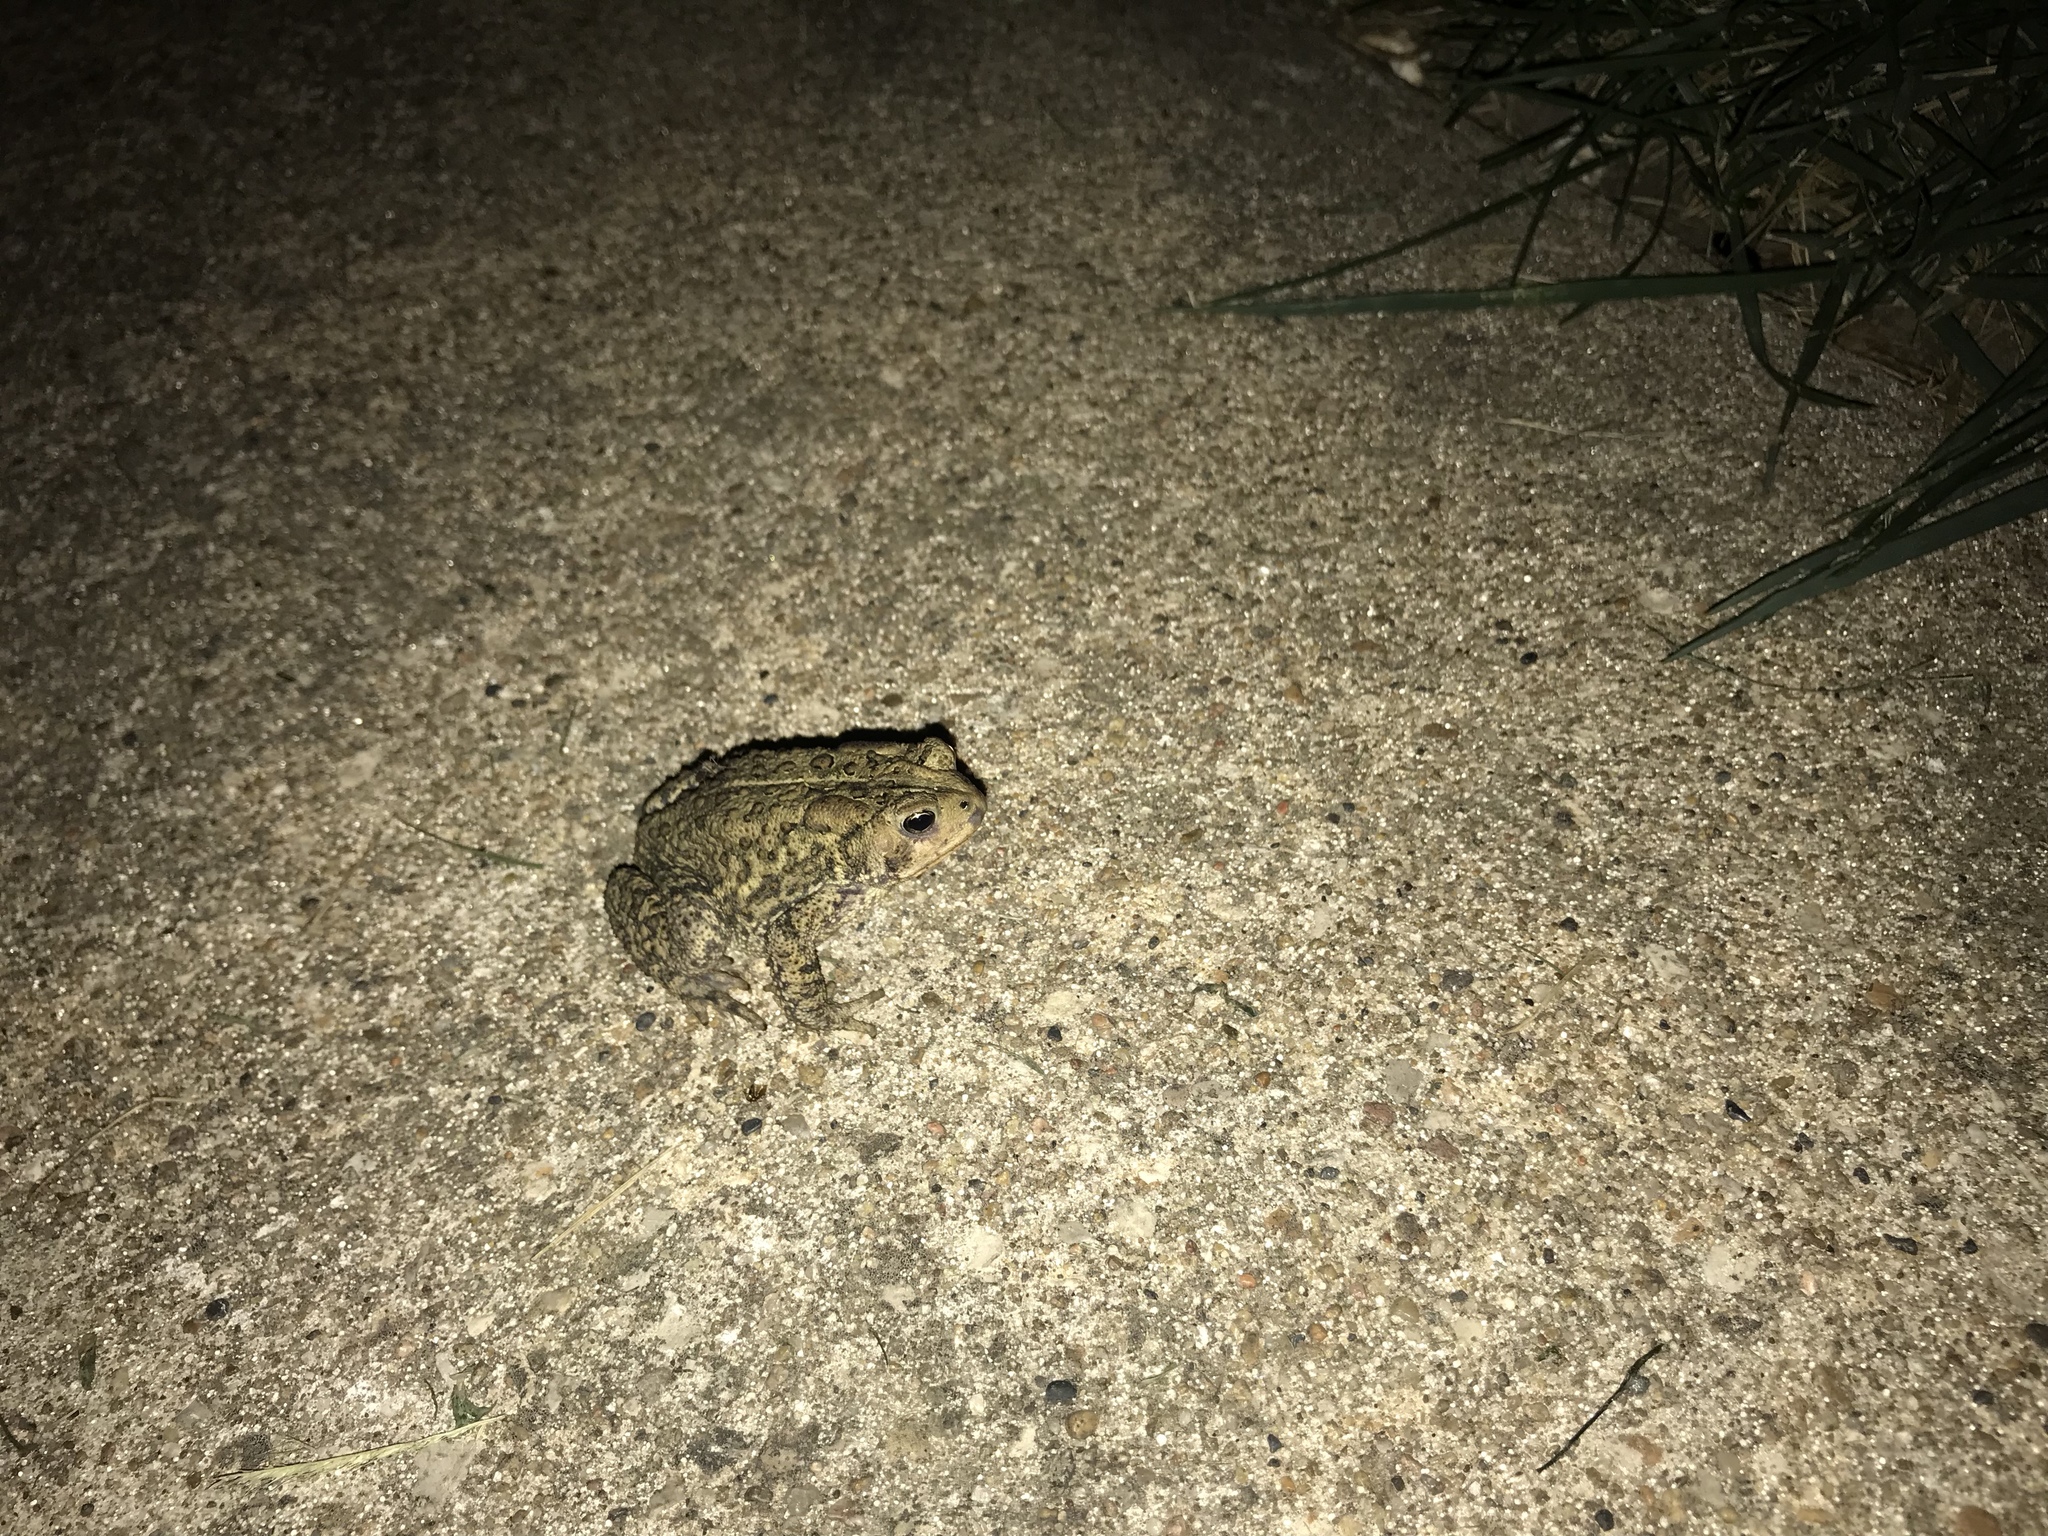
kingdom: Animalia
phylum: Chordata
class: Amphibia
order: Anura
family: Bufonidae
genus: Anaxyrus
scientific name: Anaxyrus americanus
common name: American toad
